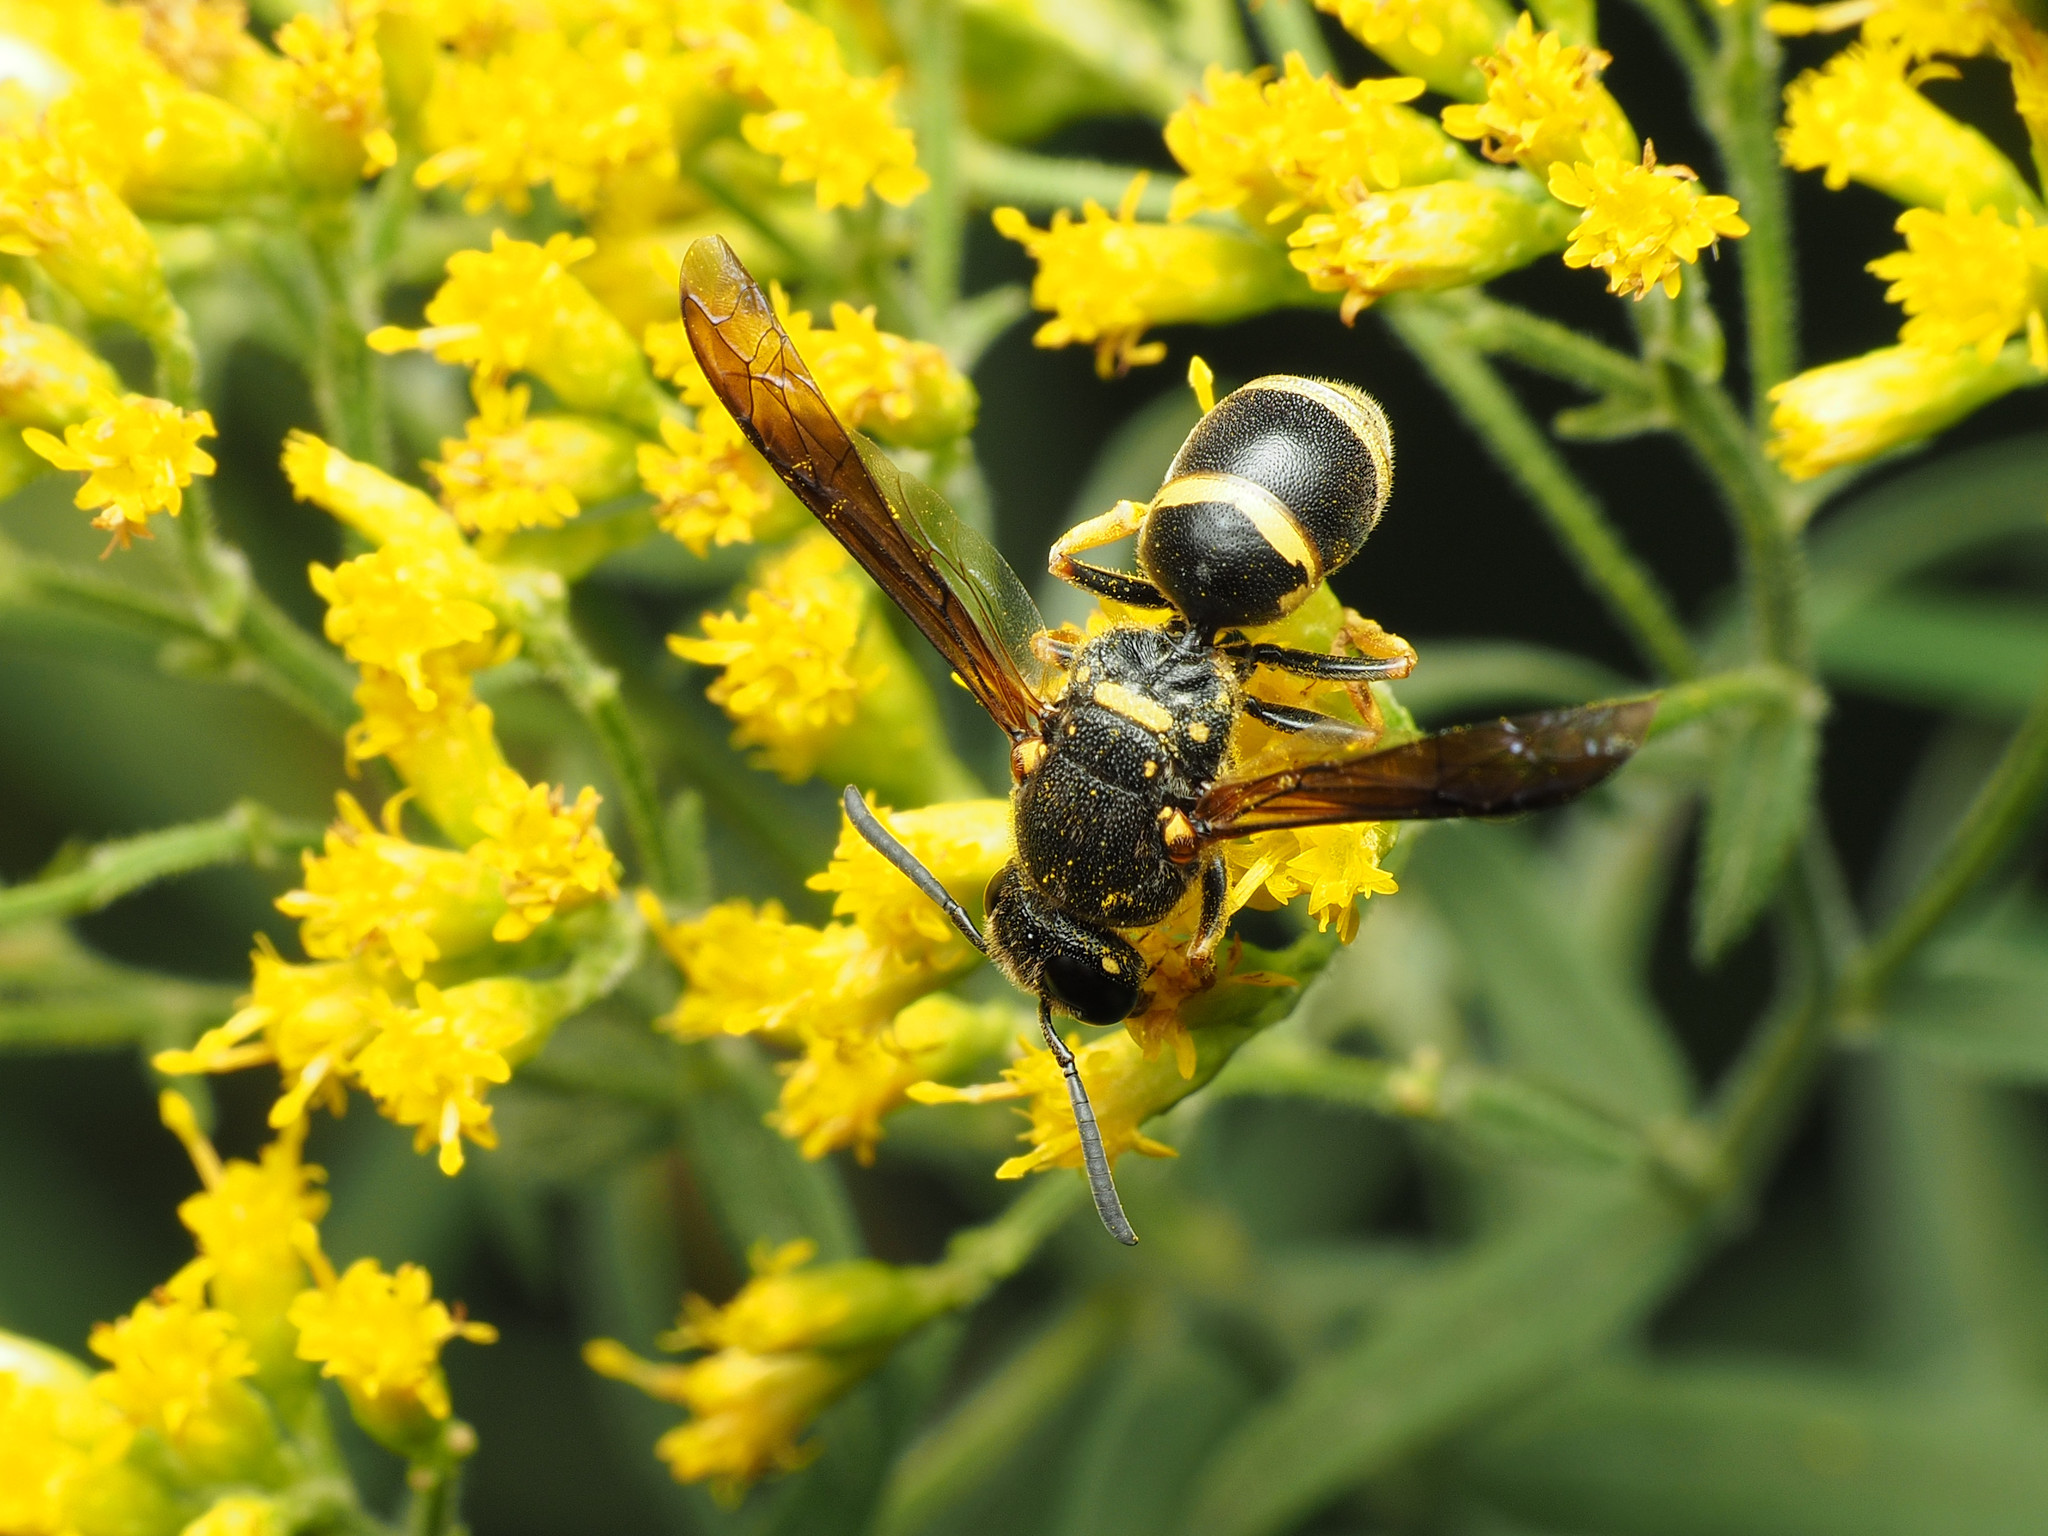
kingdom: Animalia
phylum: Arthropoda
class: Insecta
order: Hymenoptera
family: Eumenidae
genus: Euodynerus
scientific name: Euodynerus foraminatus
